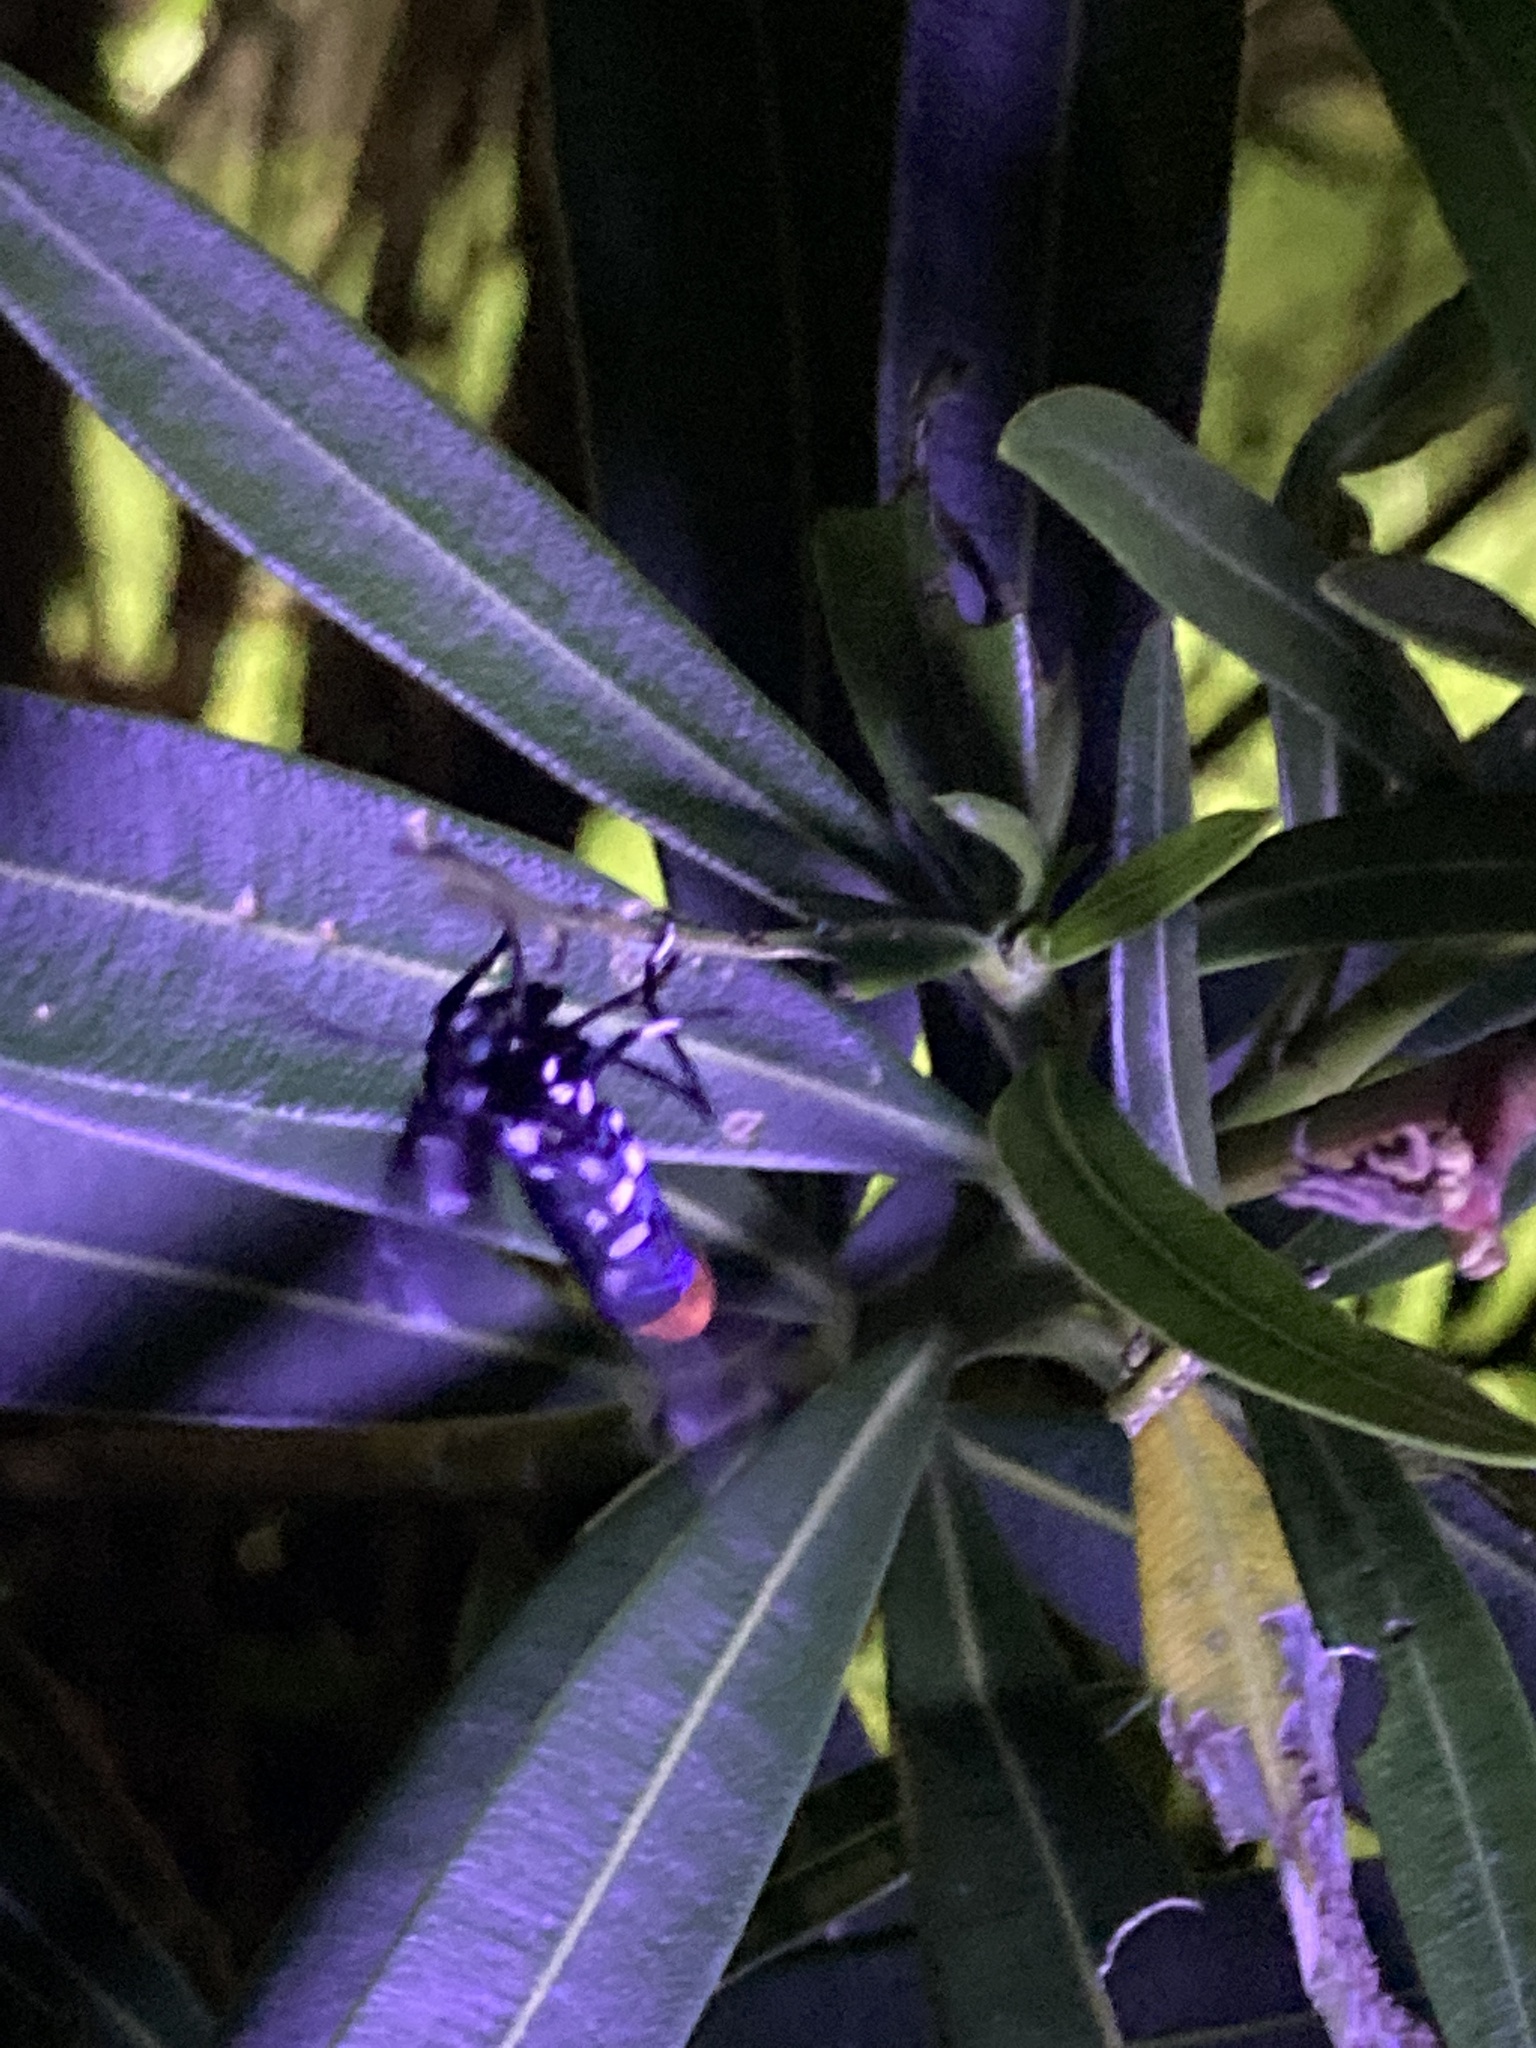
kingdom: Animalia
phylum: Arthropoda
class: Insecta
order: Lepidoptera
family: Erebidae
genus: Syntomeida
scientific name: Syntomeida epilais
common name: Polka-dot wasp moth
